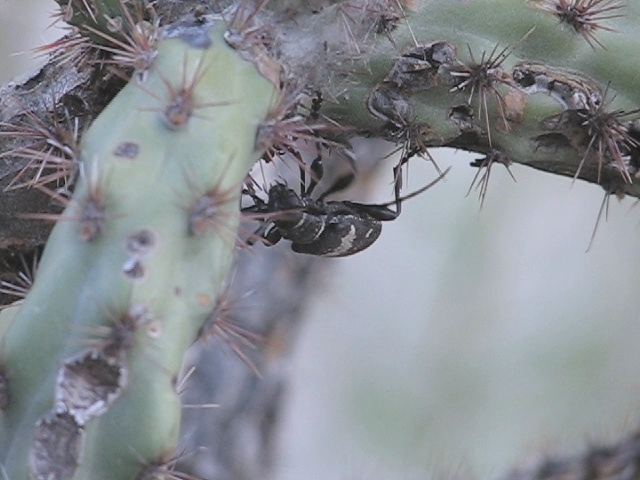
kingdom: Animalia
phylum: Arthropoda
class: Insecta
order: Coleoptera
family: Cerambycidae
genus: Coenopoeus
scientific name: Coenopoeus palmeri
